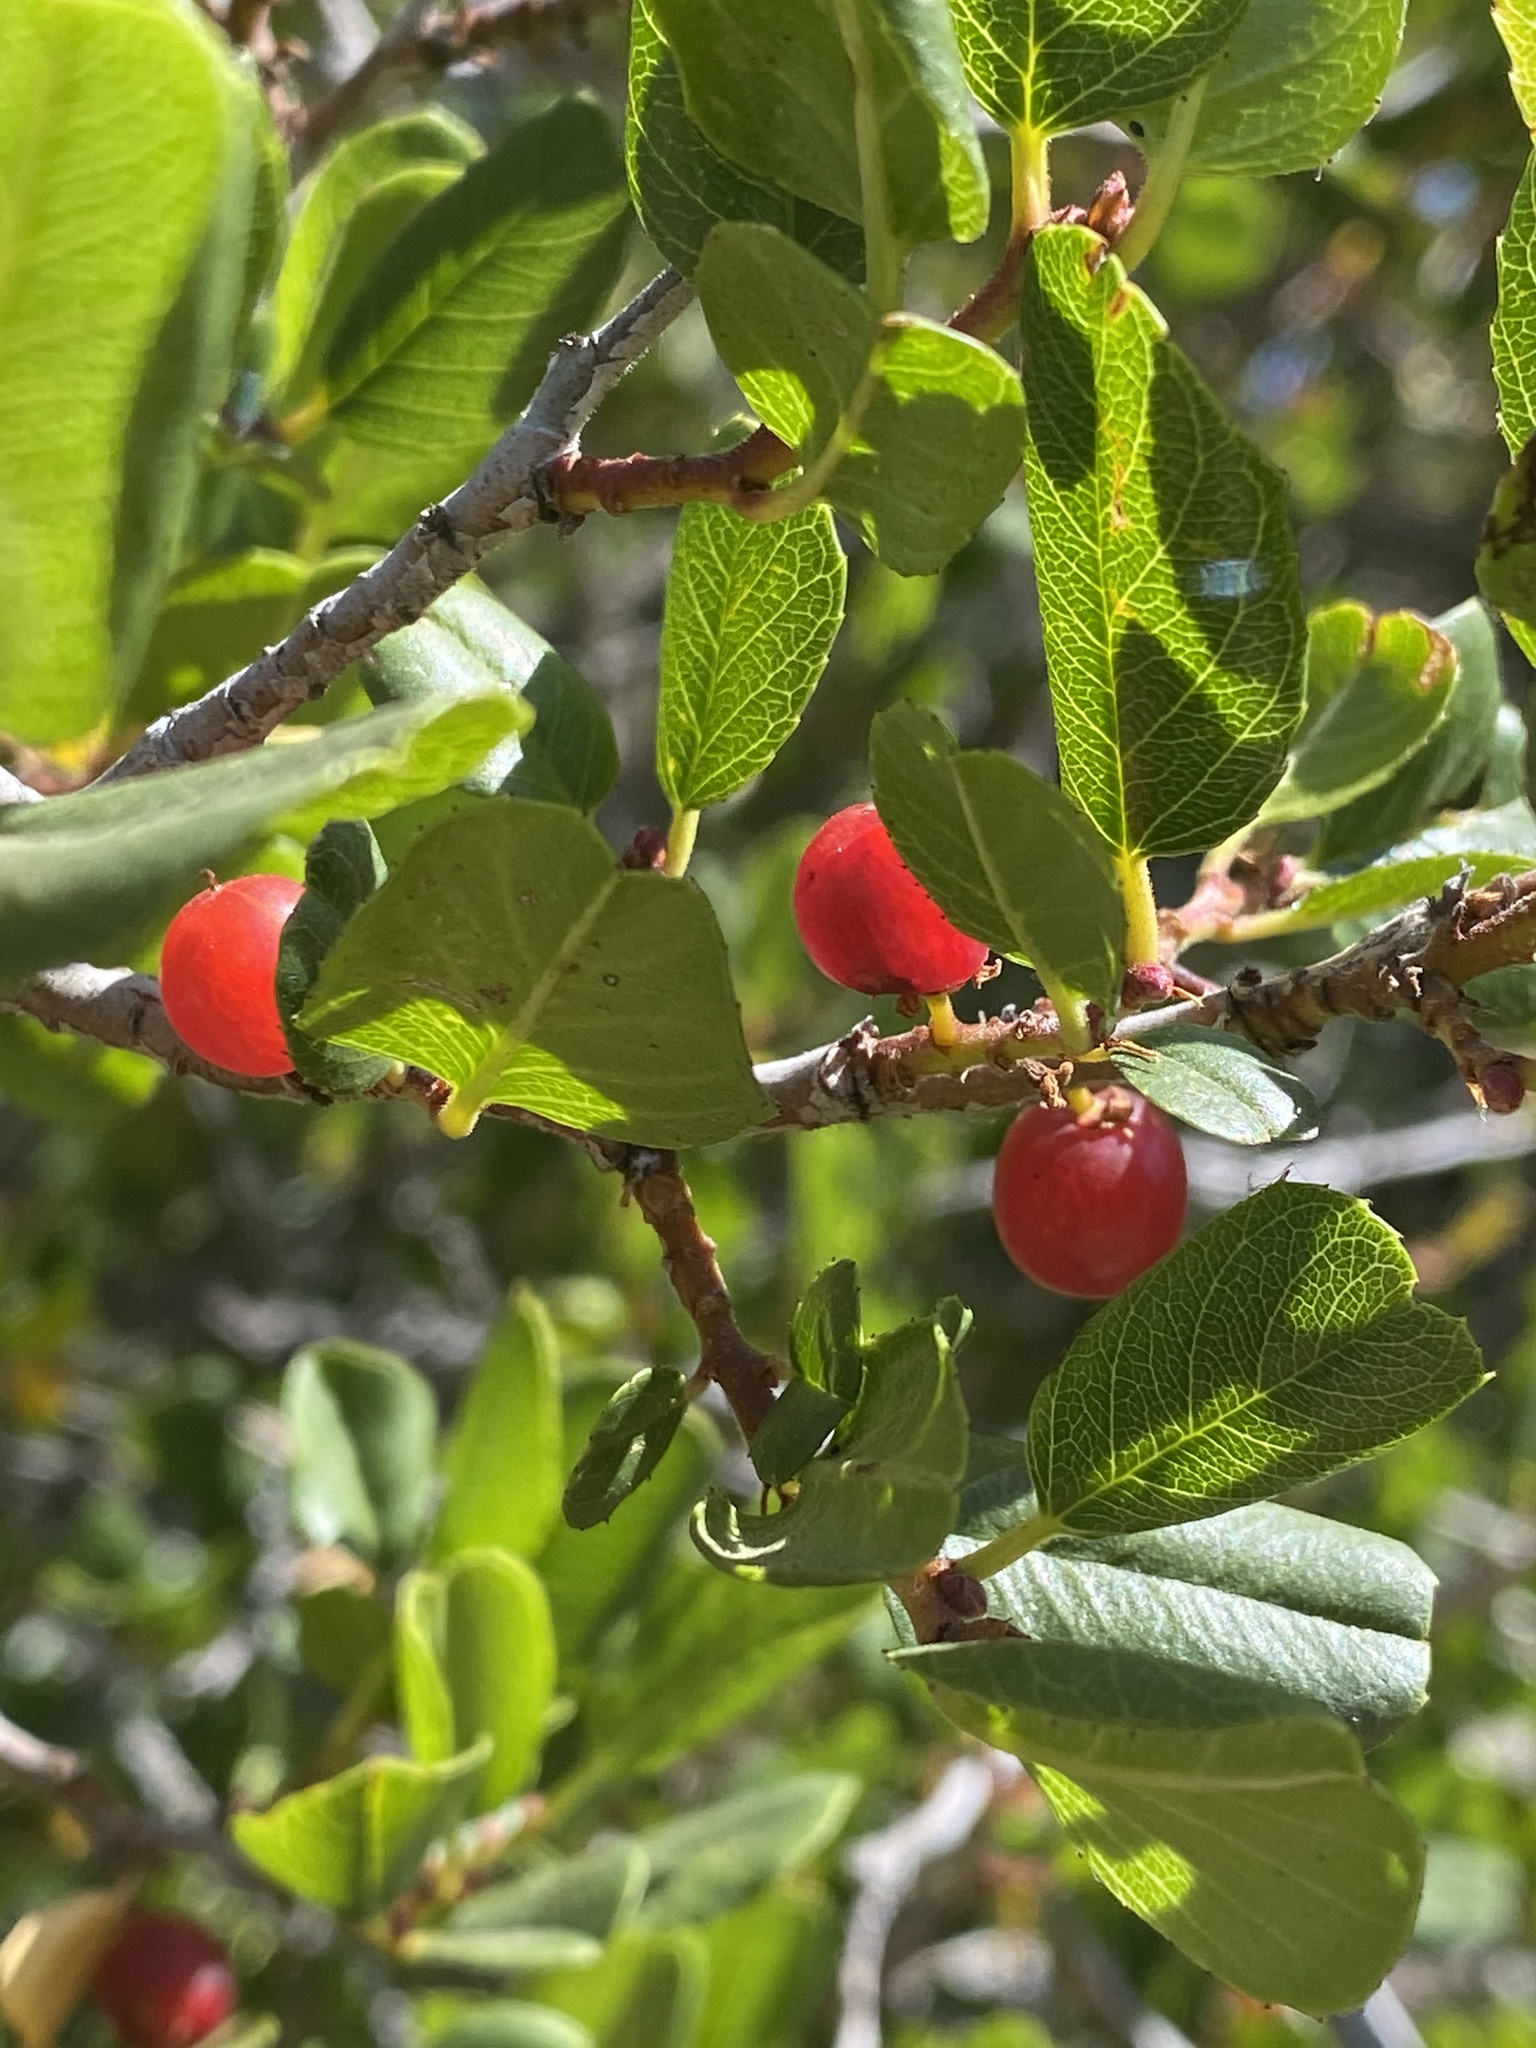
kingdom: Plantae
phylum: Tracheophyta
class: Magnoliopsida
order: Rosales
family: Rhamnaceae
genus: Endotropis
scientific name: Endotropis crocea
